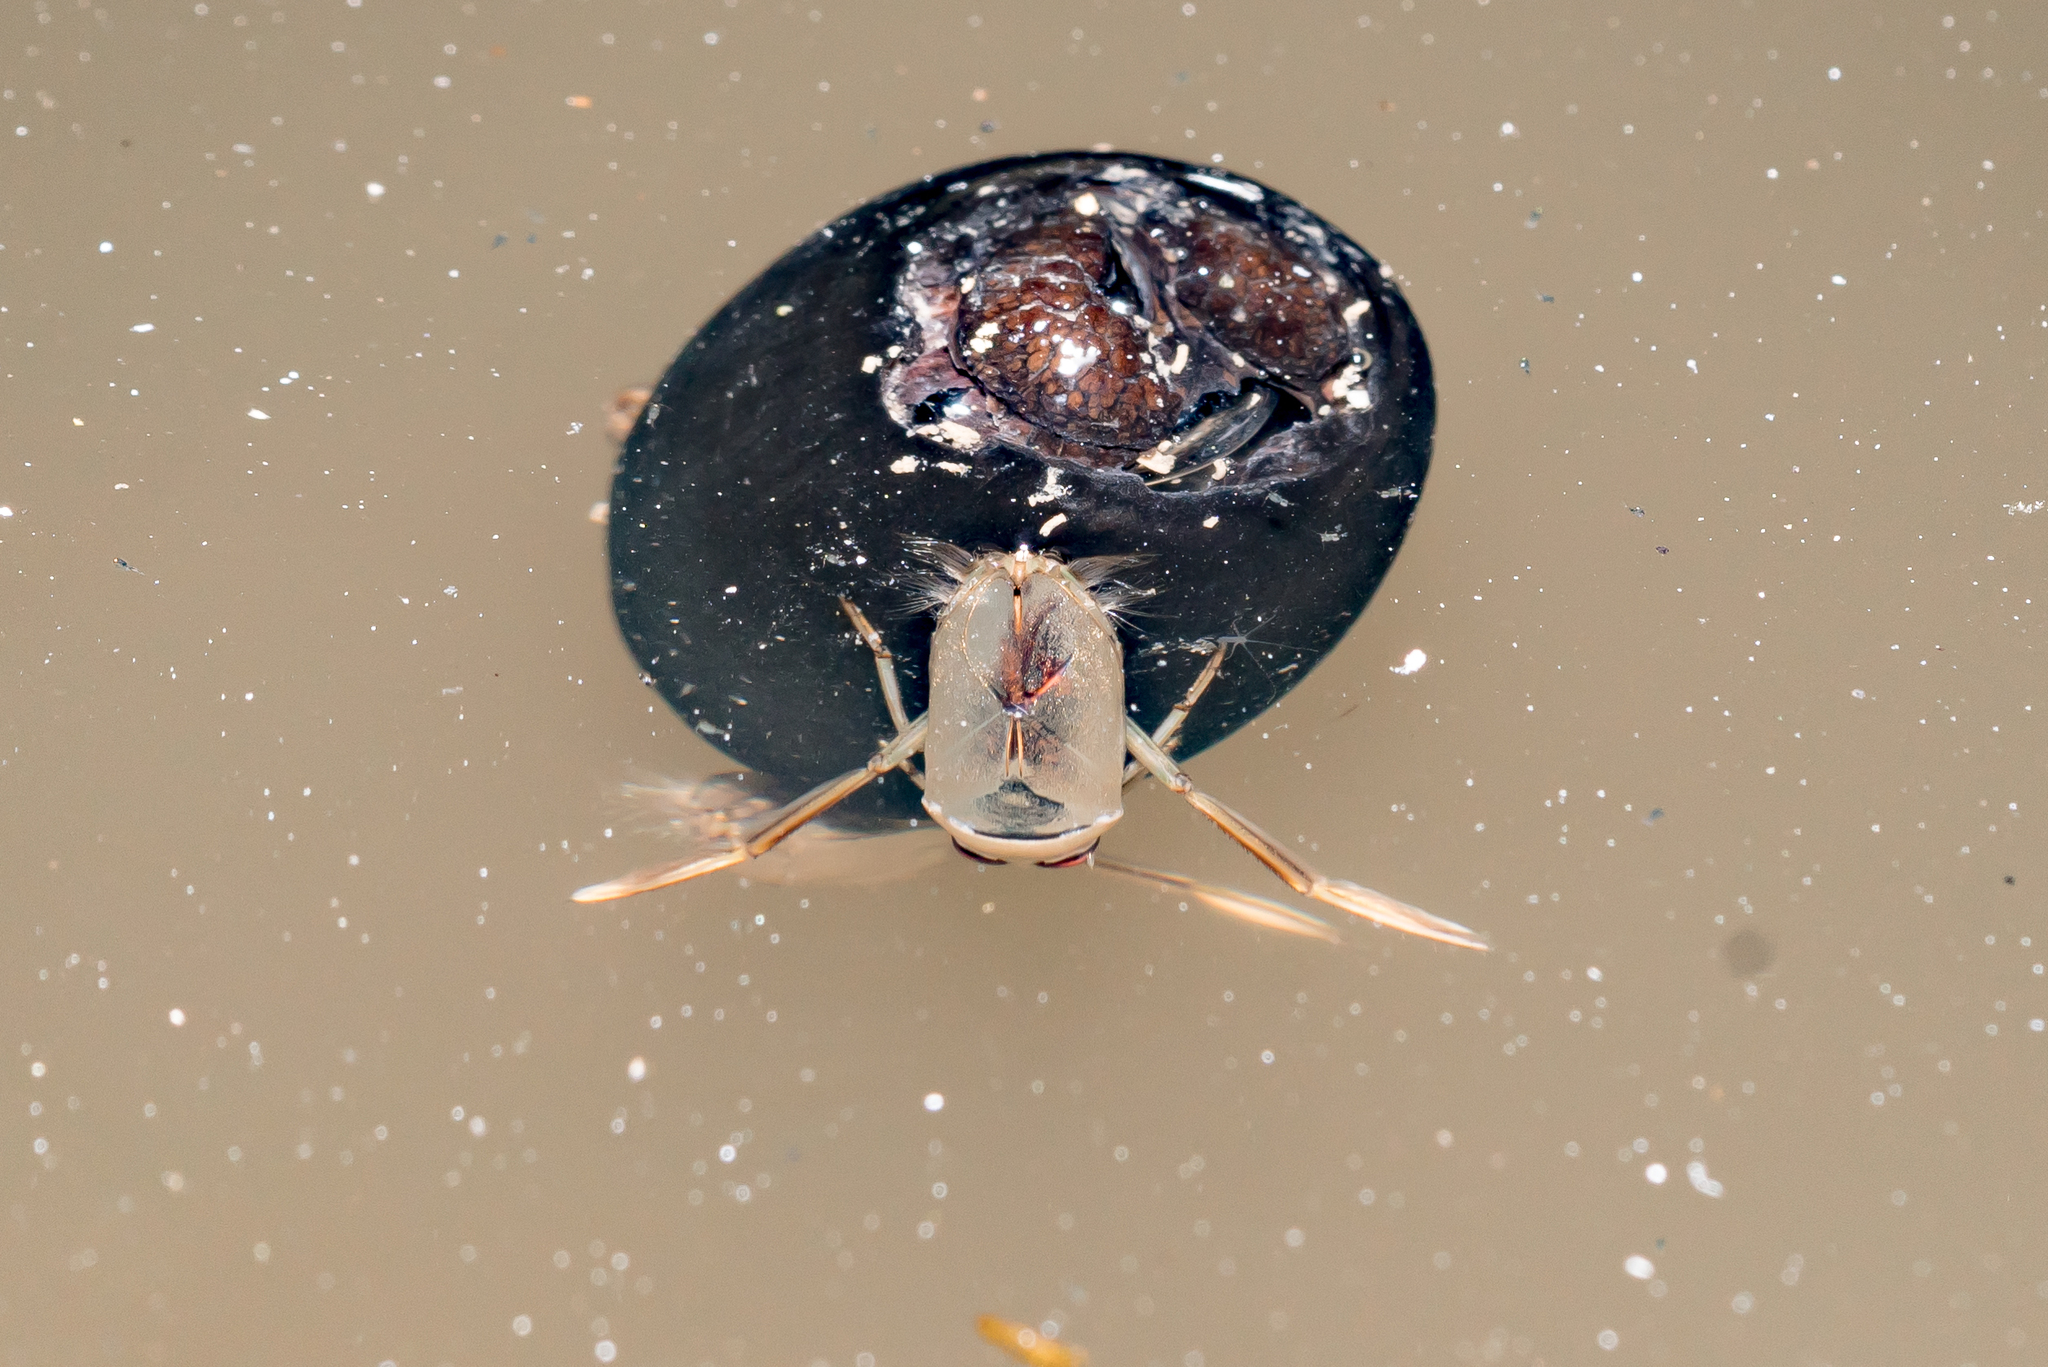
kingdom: Animalia
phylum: Arthropoda
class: Insecta
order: Hemiptera
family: Notonectidae
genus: Notonecta
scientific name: Notonecta maculata
